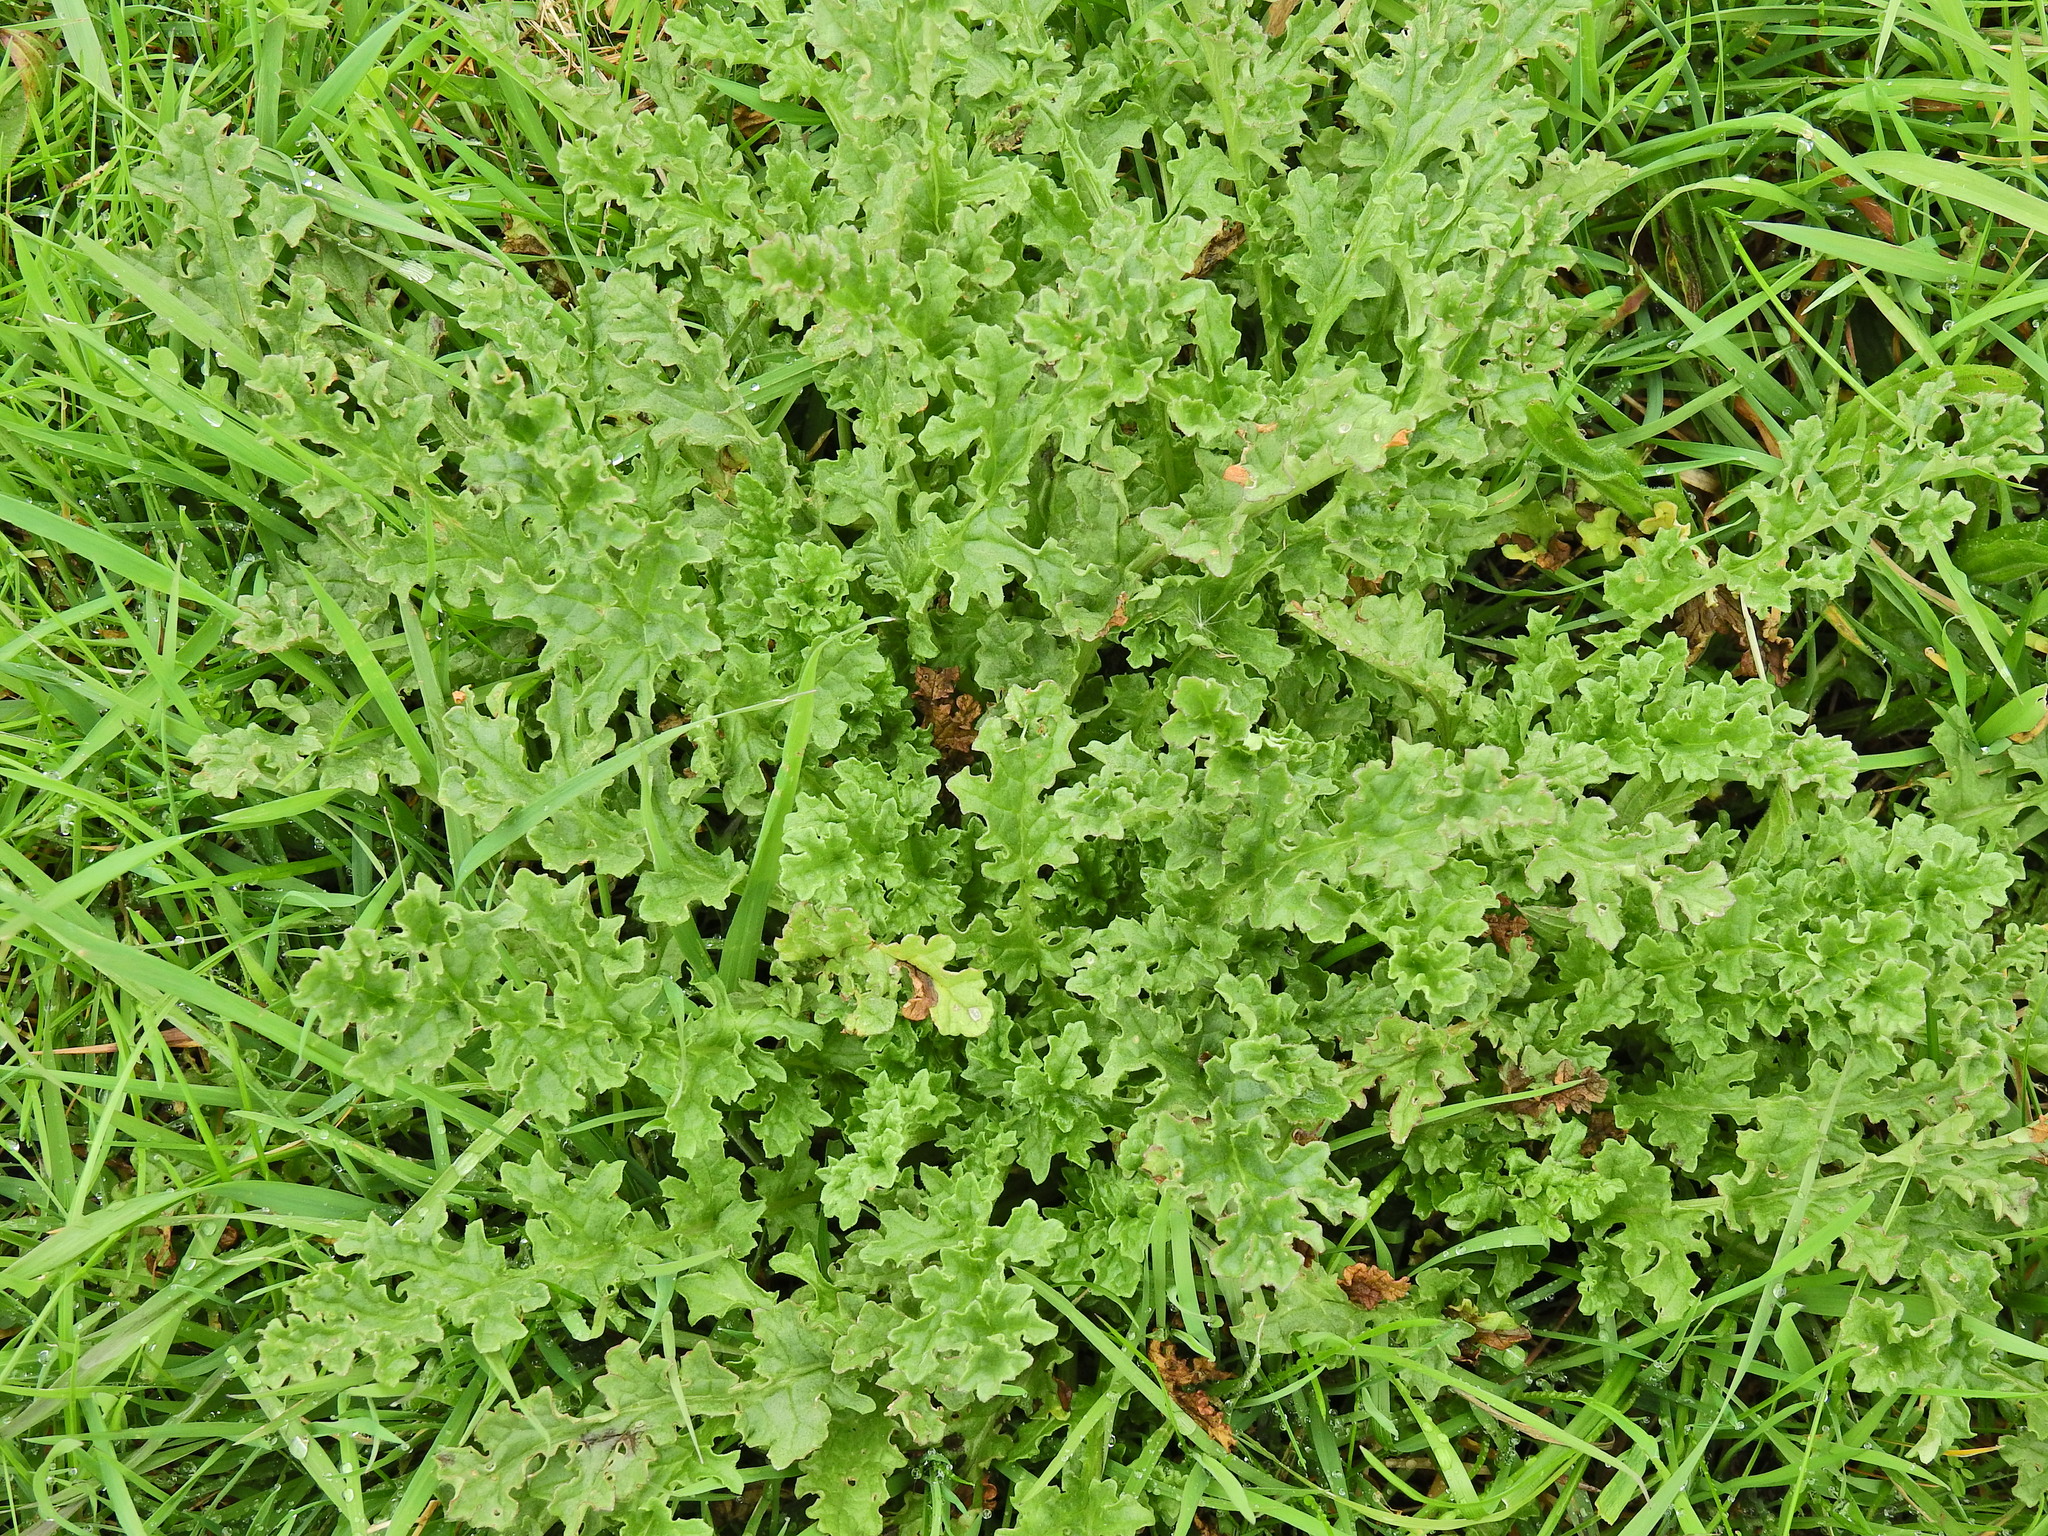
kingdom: Plantae
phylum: Tracheophyta
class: Magnoliopsida
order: Asterales
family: Asteraceae
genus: Jacobaea
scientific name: Jacobaea vulgaris
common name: Stinking willie
